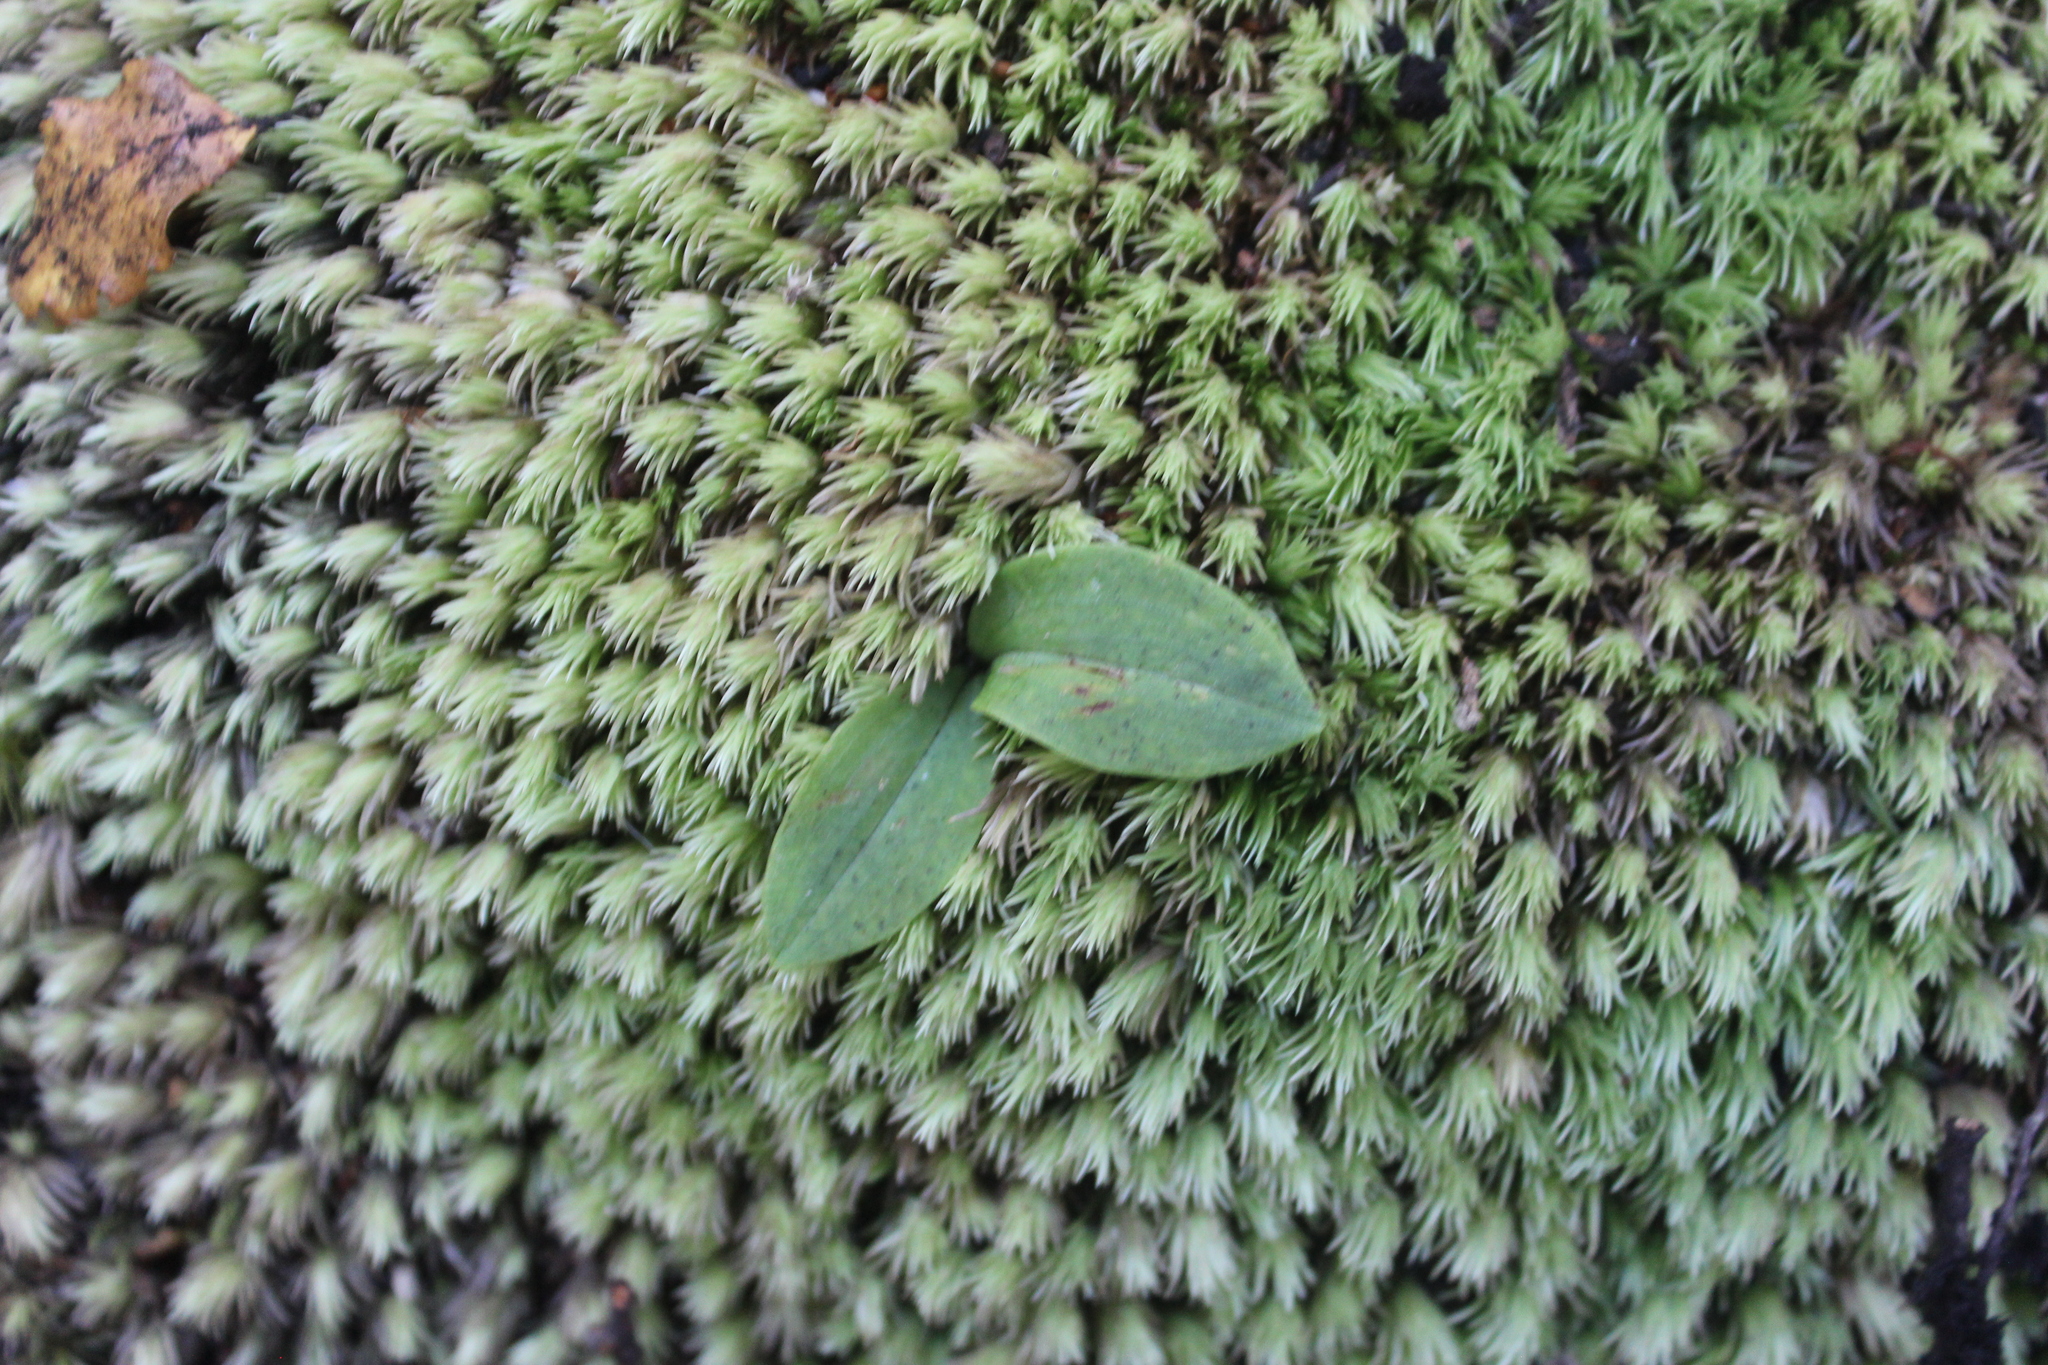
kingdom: Plantae
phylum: Tracheophyta
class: Liliopsida
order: Asparagales
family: Orchidaceae
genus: Chiloglottis
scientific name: Chiloglottis cornuta
